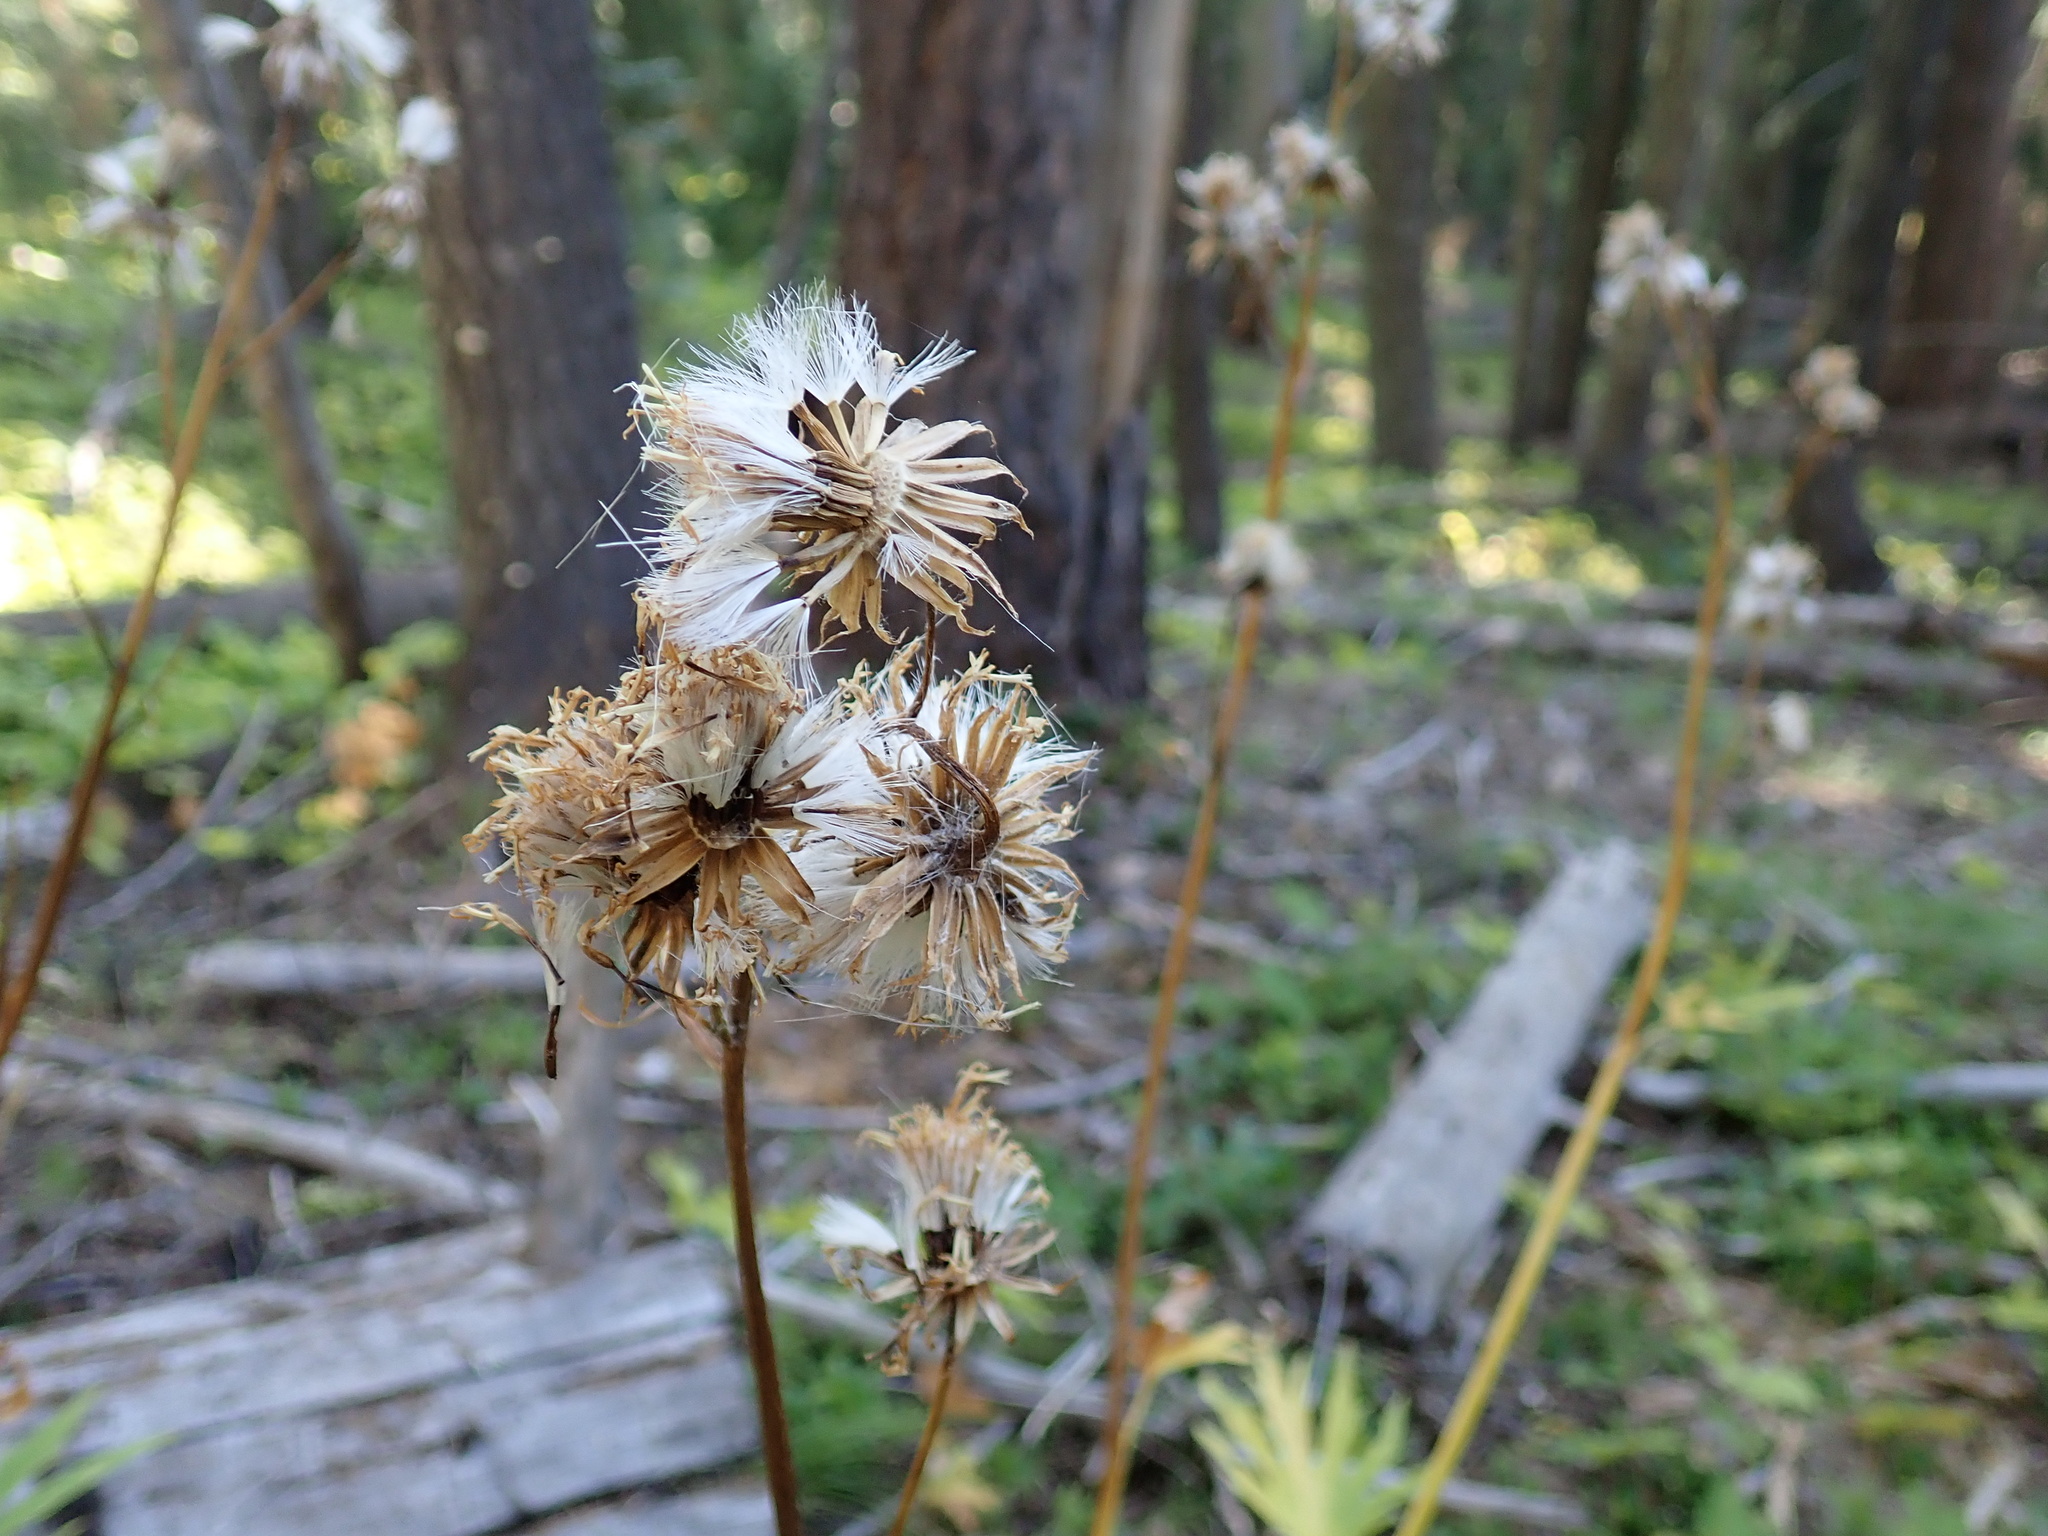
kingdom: Plantae
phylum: Tracheophyta
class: Magnoliopsida
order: Asterales
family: Asteraceae
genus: Cacaliopsis
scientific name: Cacaliopsis nardosmia
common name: Silvercrown
